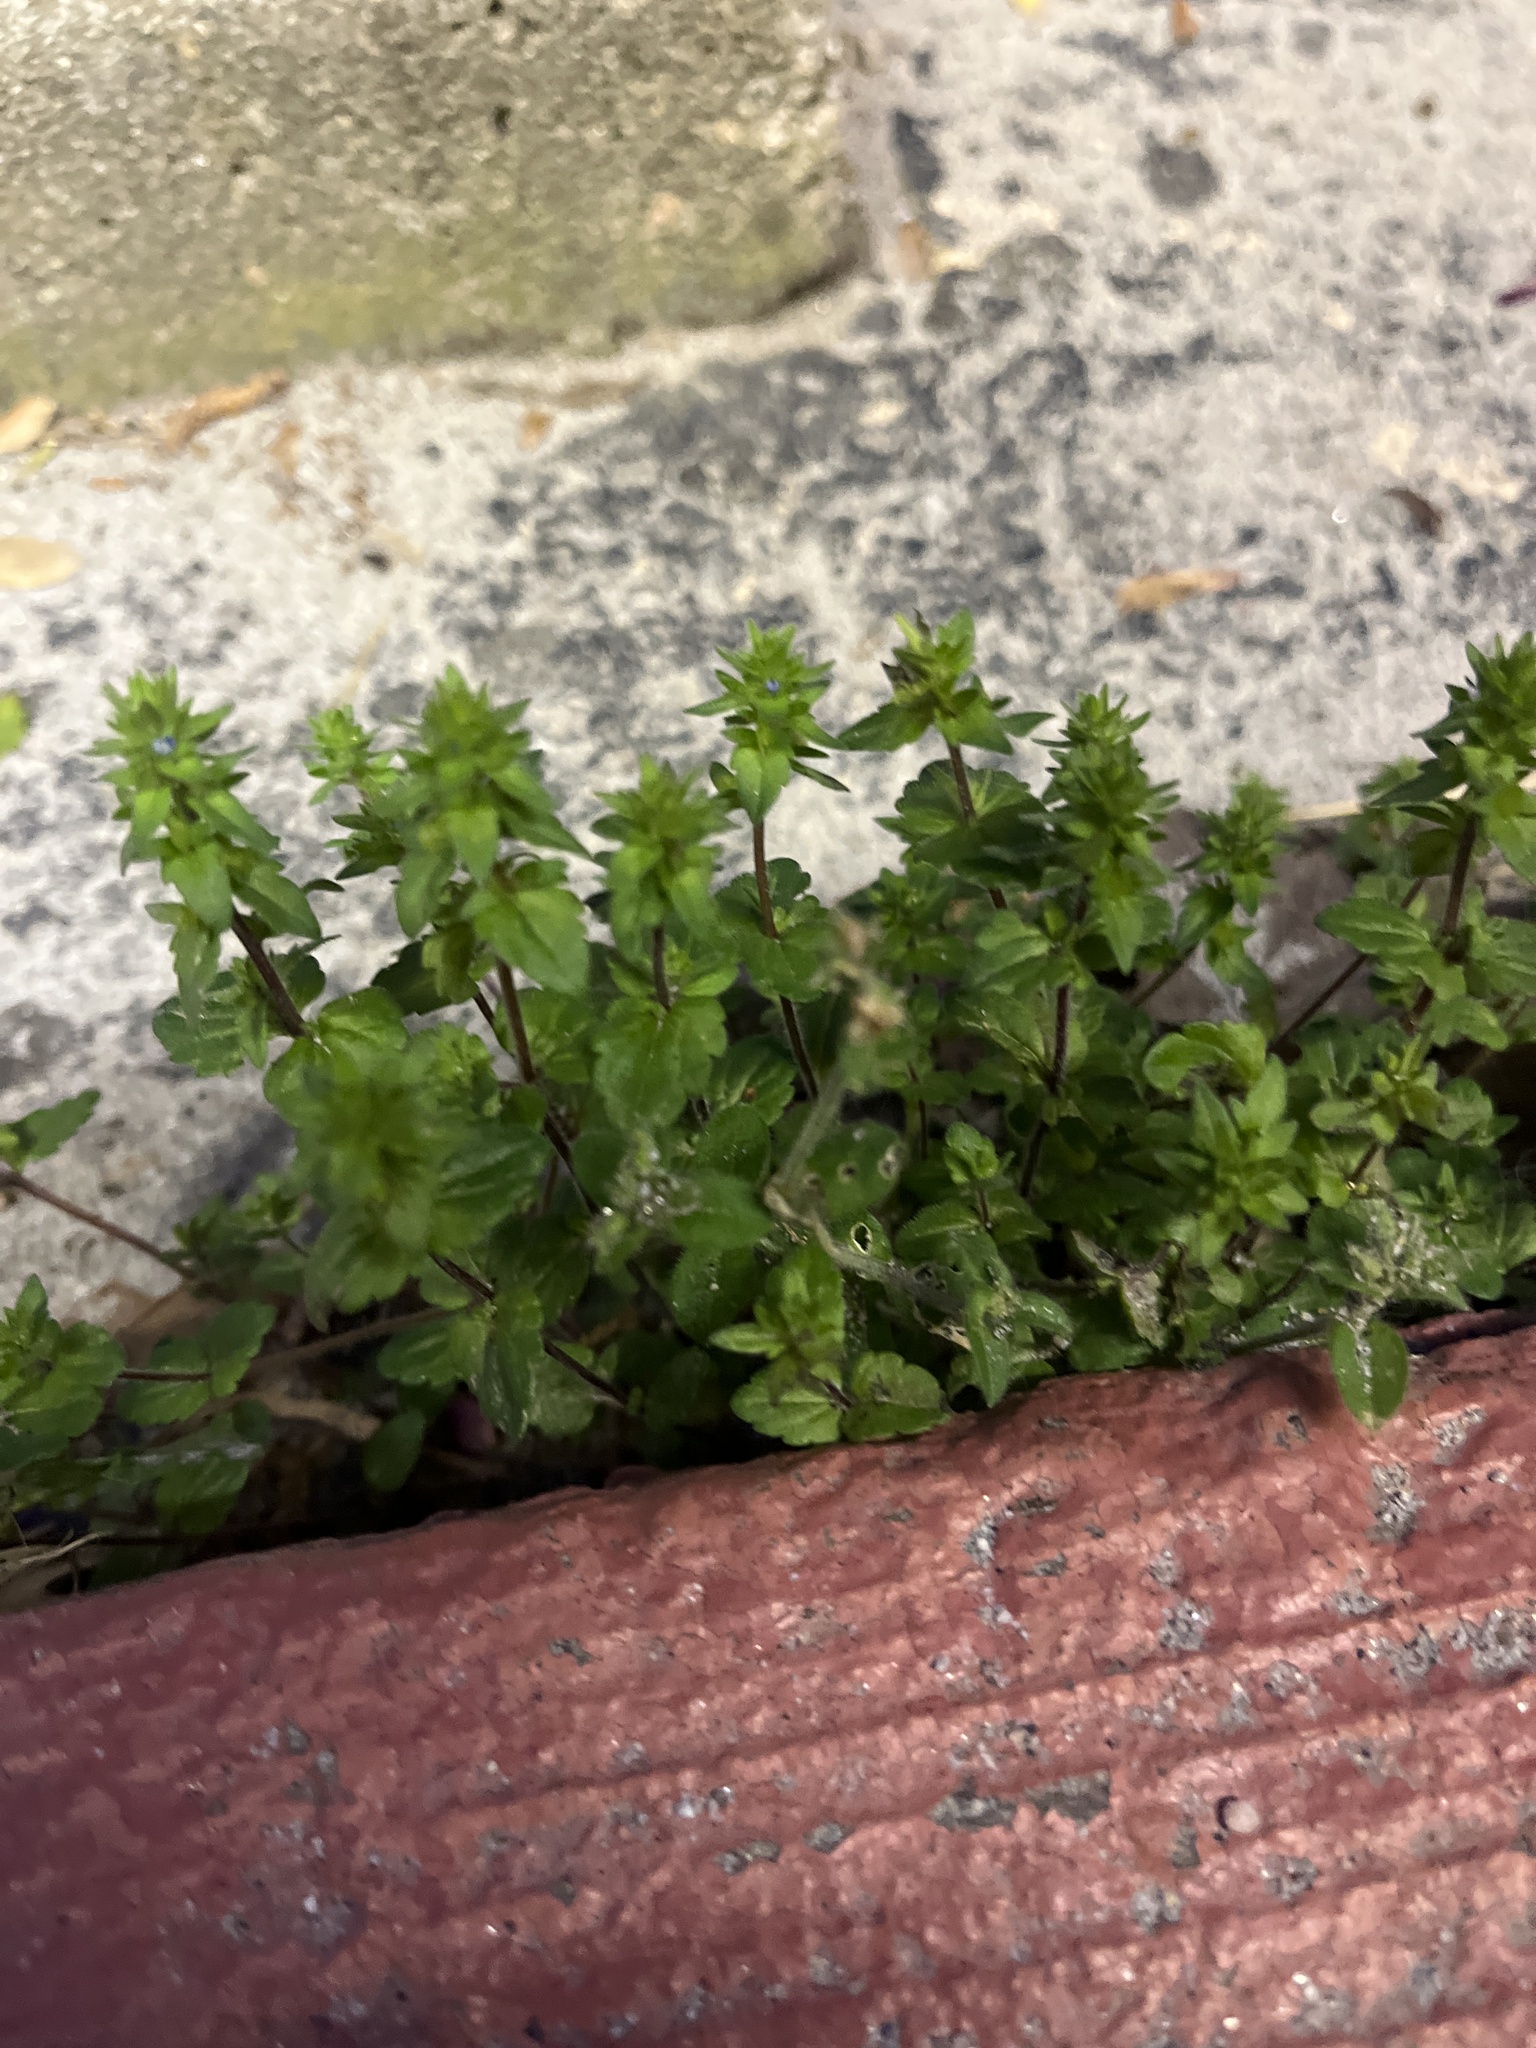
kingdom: Plantae
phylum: Tracheophyta
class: Magnoliopsida
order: Lamiales
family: Plantaginaceae
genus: Veronica
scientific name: Veronica arvensis
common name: Corn speedwell
